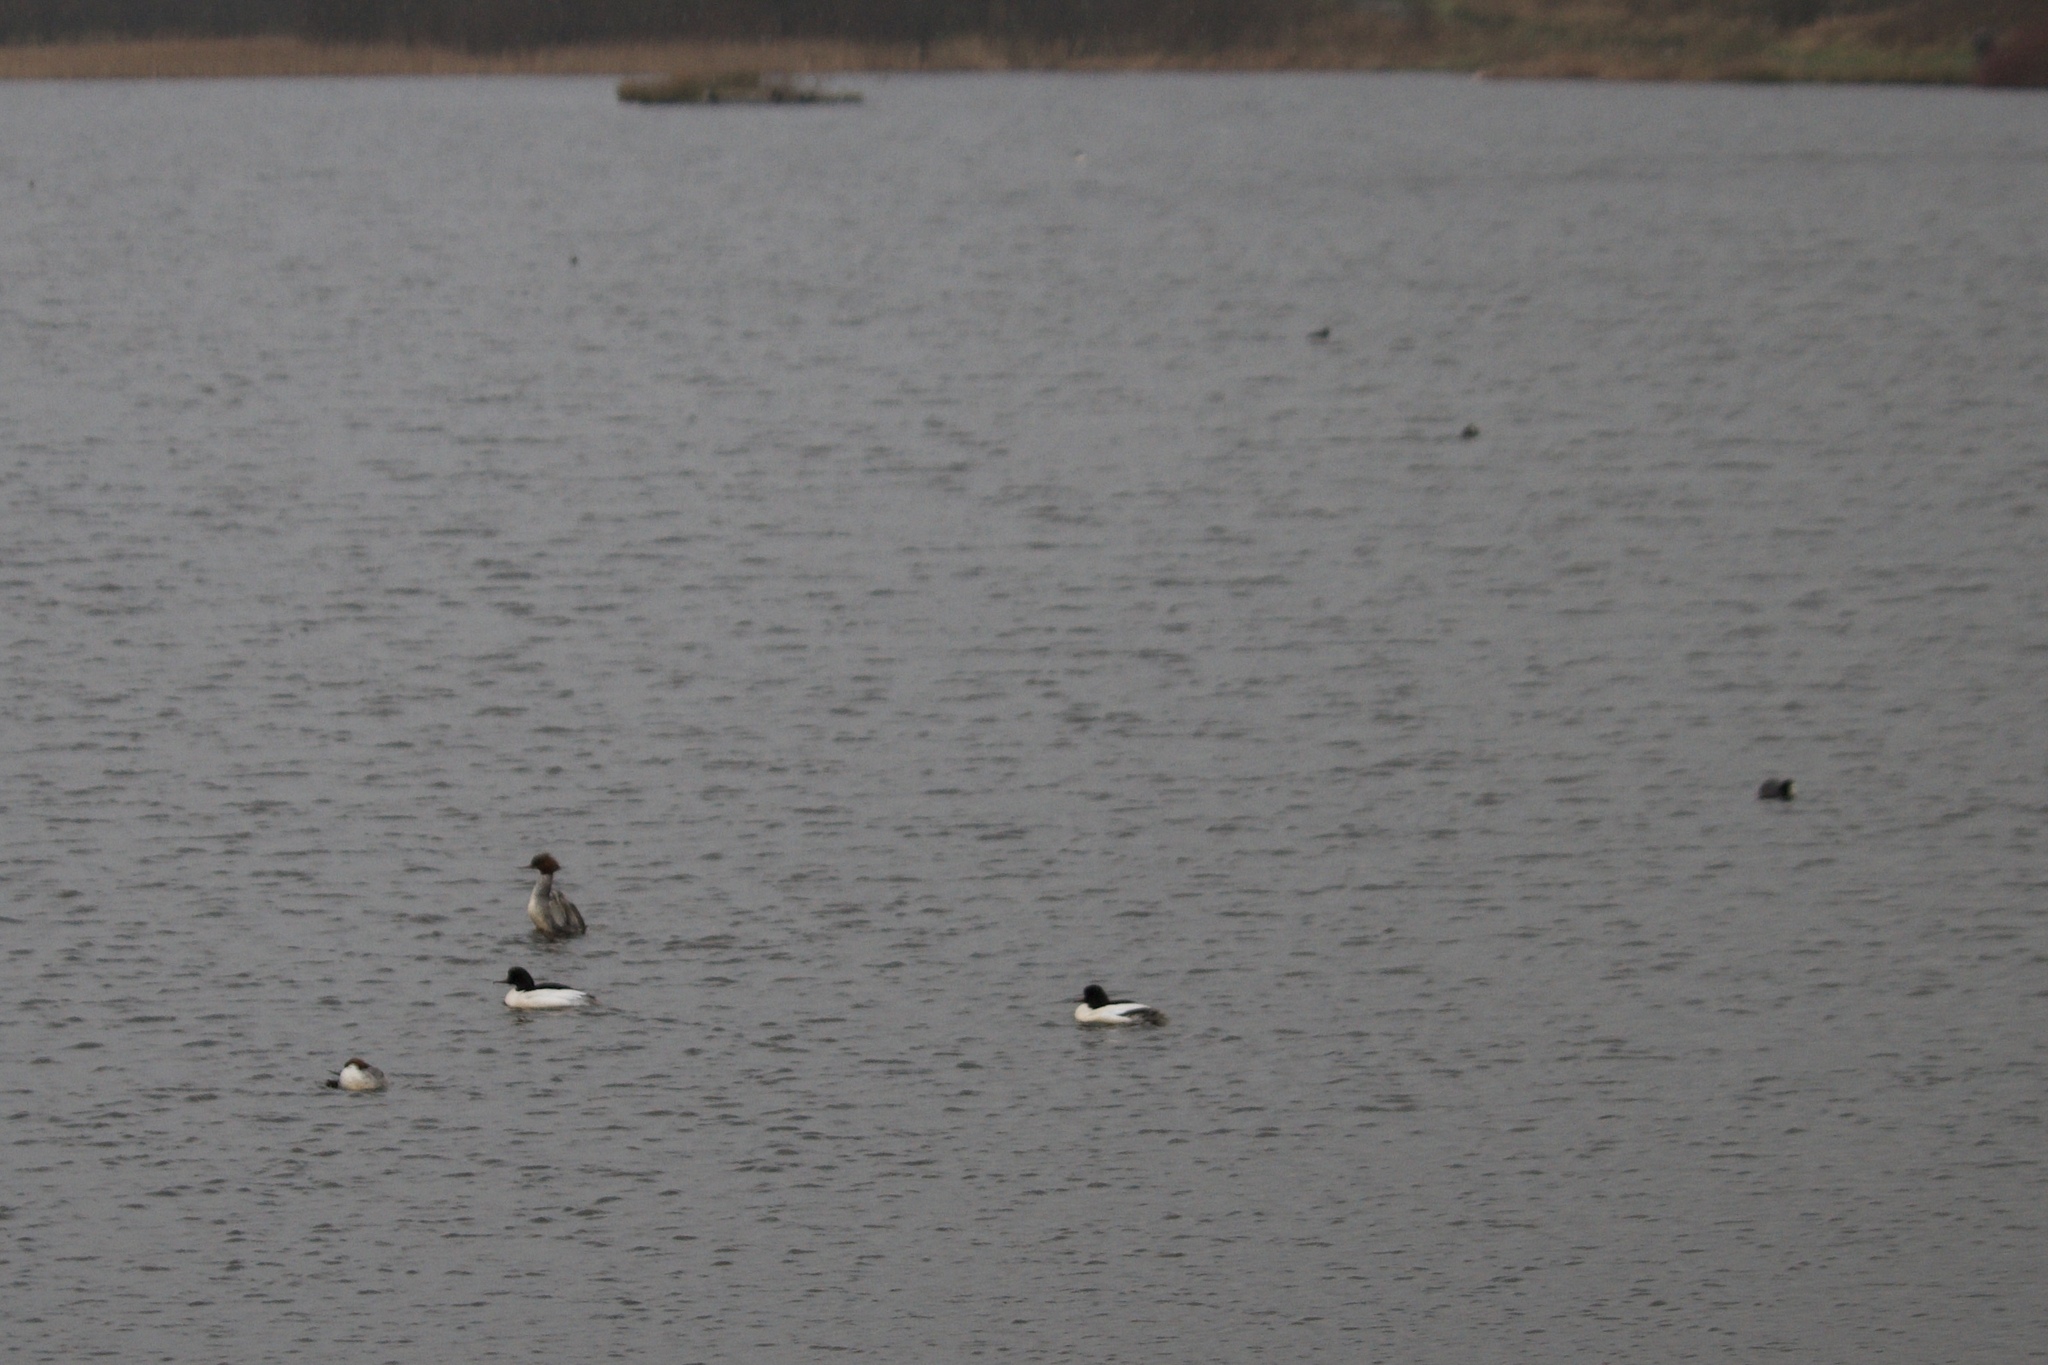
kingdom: Animalia
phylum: Chordata
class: Aves
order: Anseriformes
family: Anatidae
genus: Mergus
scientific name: Mergus merganser
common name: Common merganser
